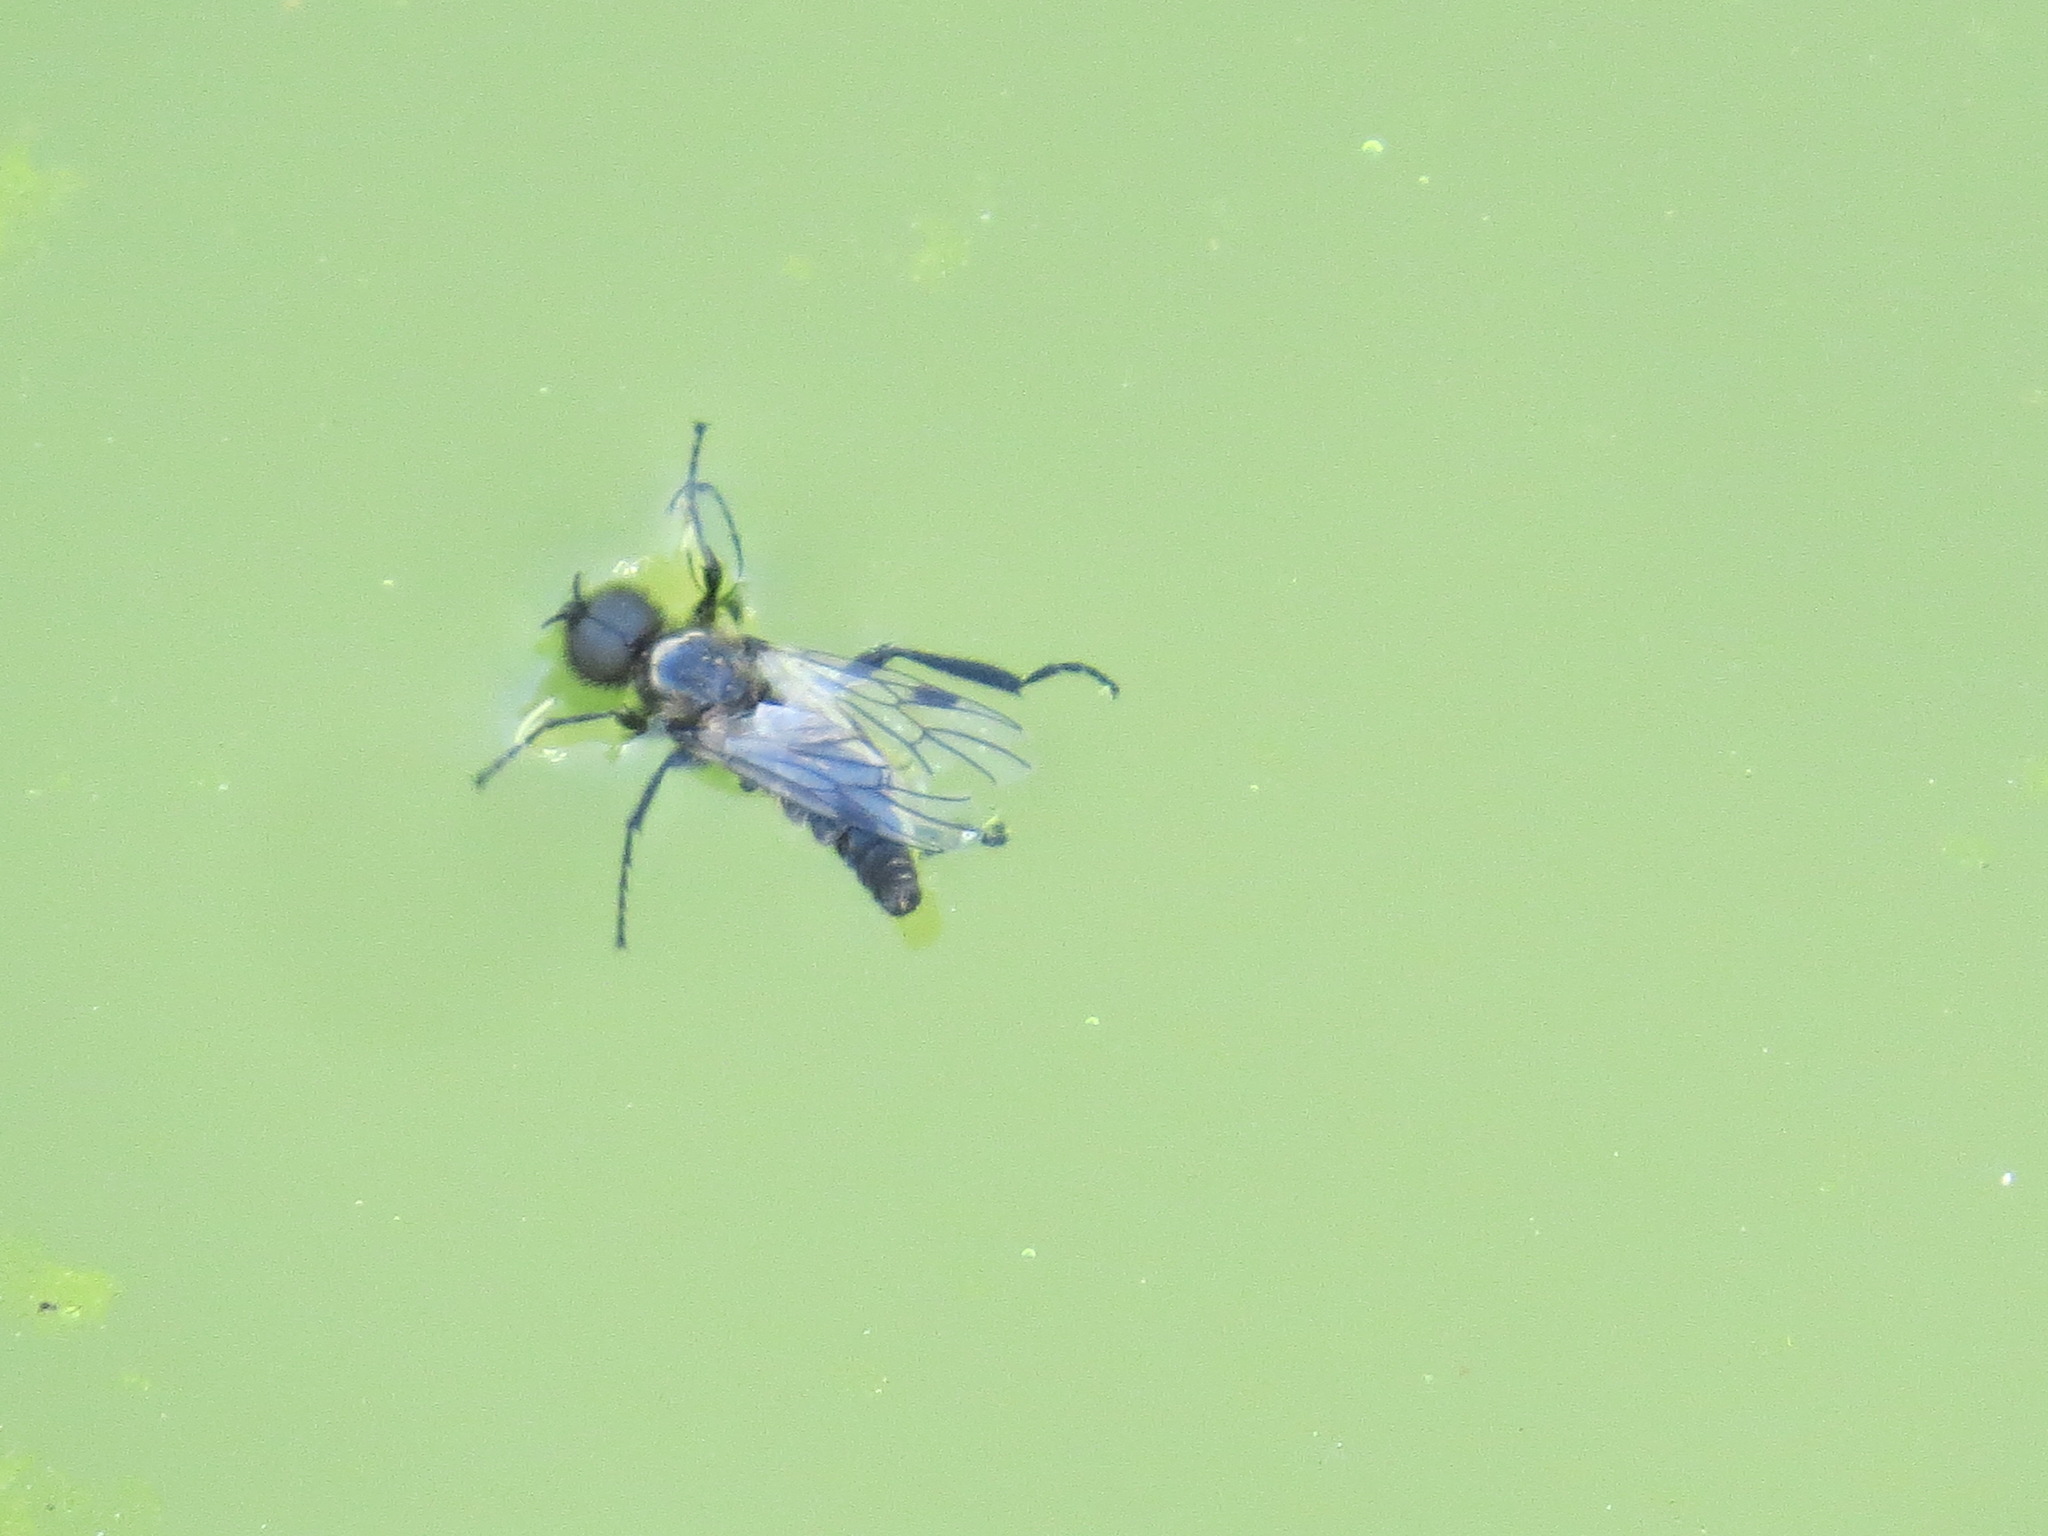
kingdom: Animalia
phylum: Arthropoda
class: Insecta
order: Diptera
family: Bibionidae
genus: Bibio
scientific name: Bibio albipennis
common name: White-winged march fly
